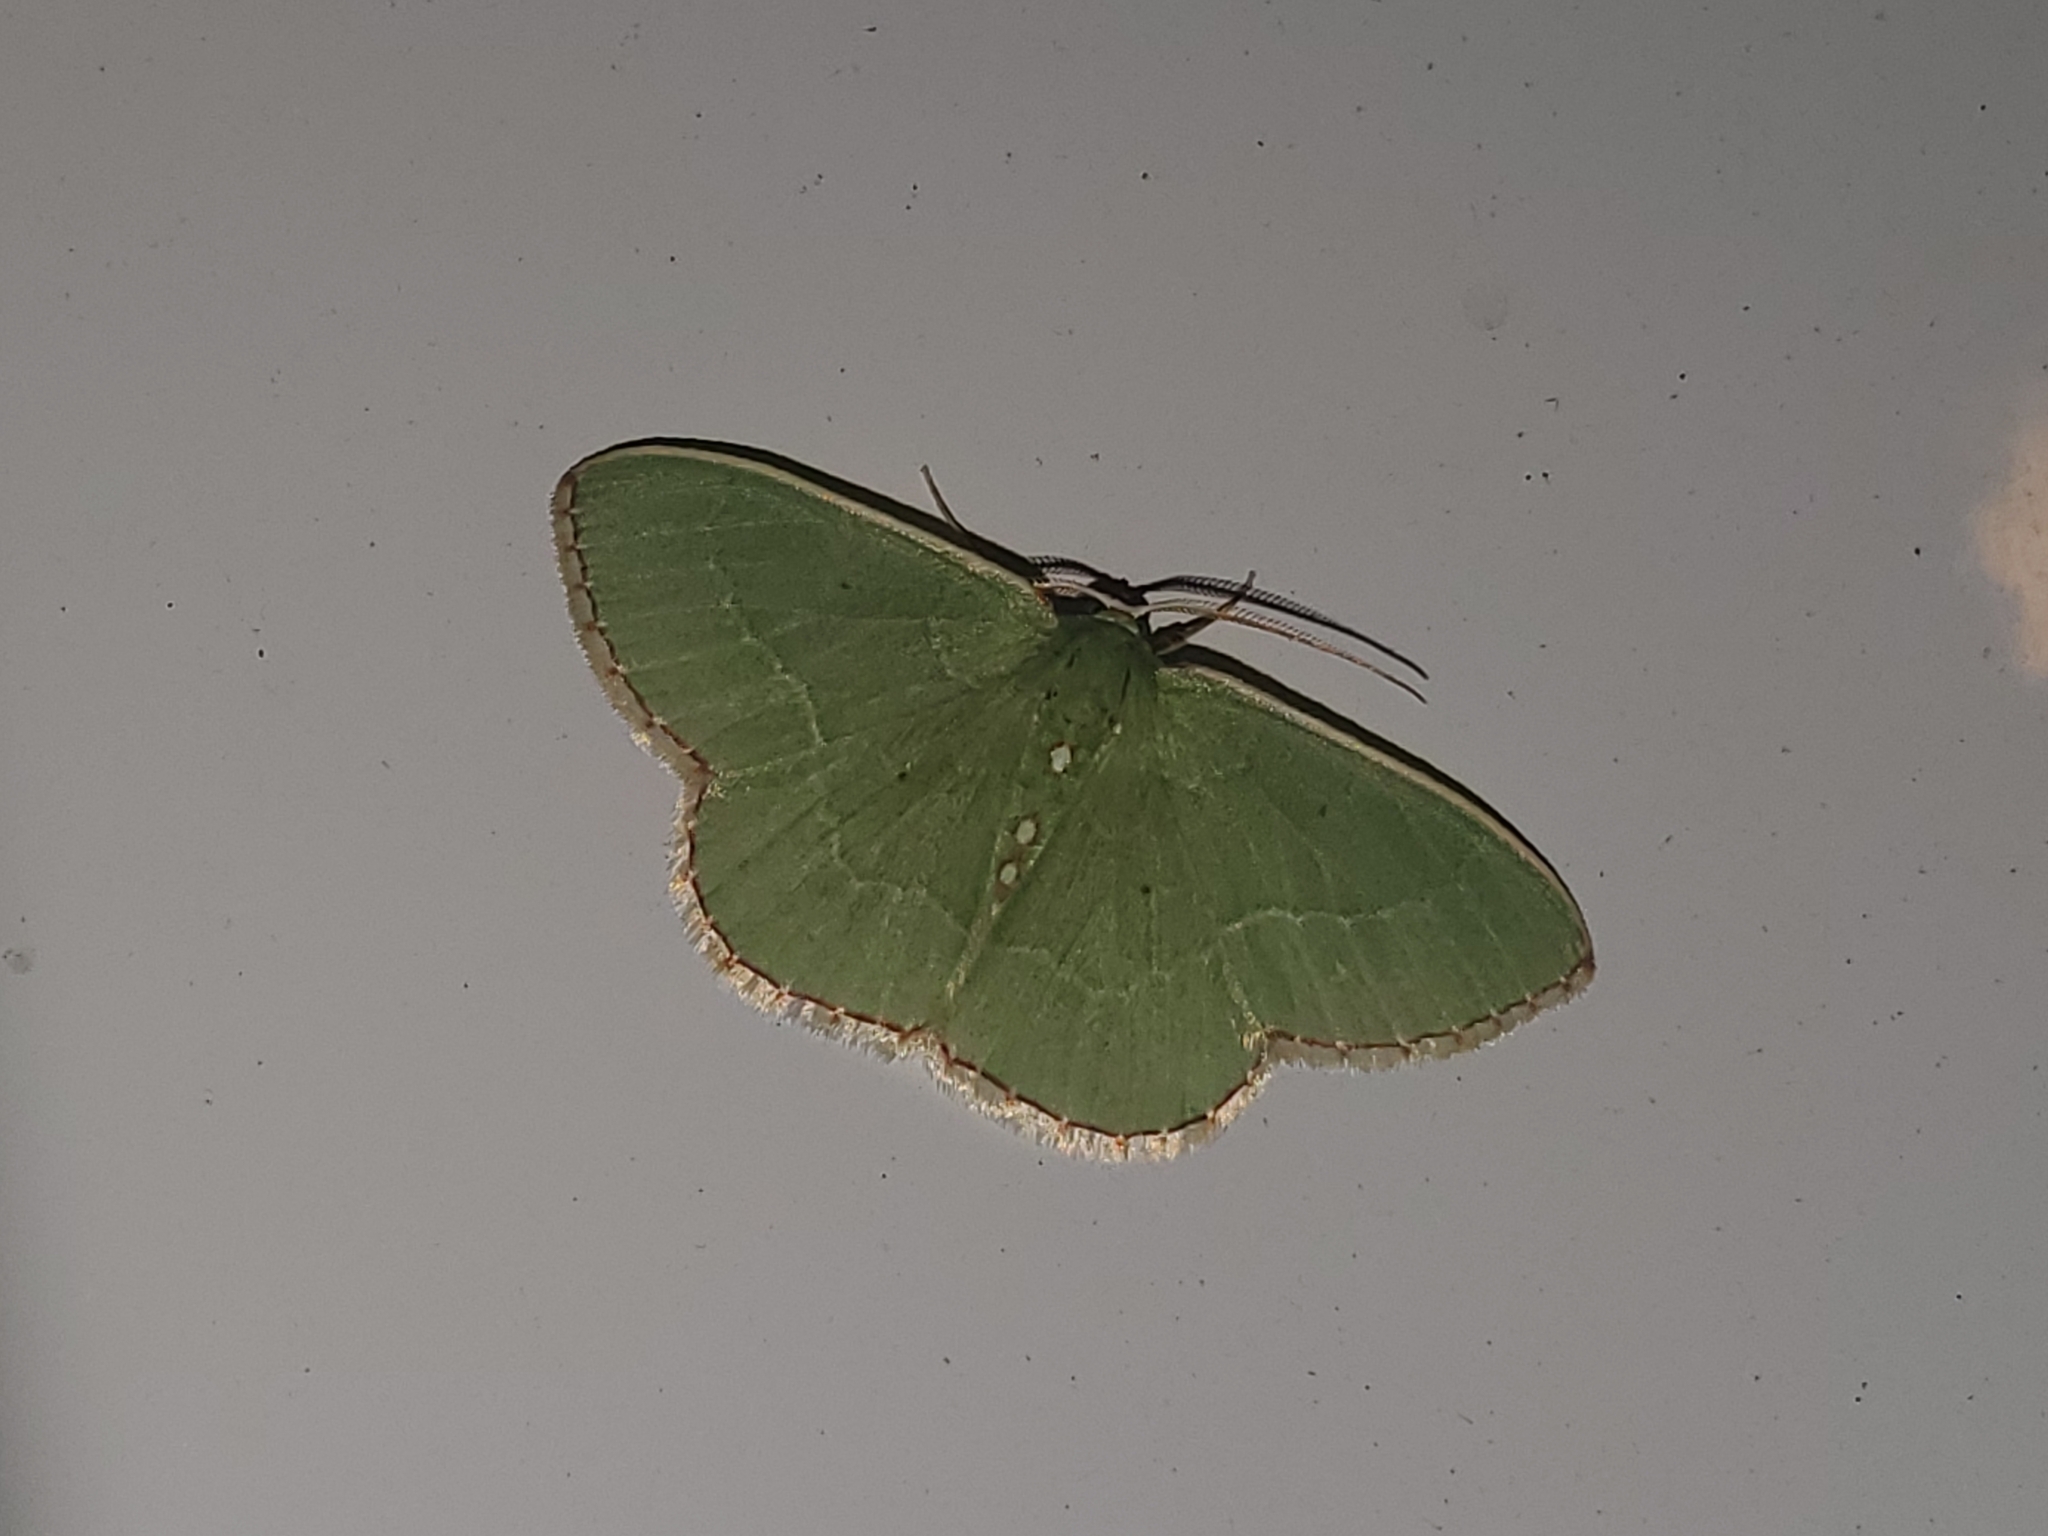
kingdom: Animalia
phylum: Arthropoda
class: Insecta
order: Lepidoptera
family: Geometridae
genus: Nemoria
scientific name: Nemoria lixaria
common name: Red-bordered emerald
